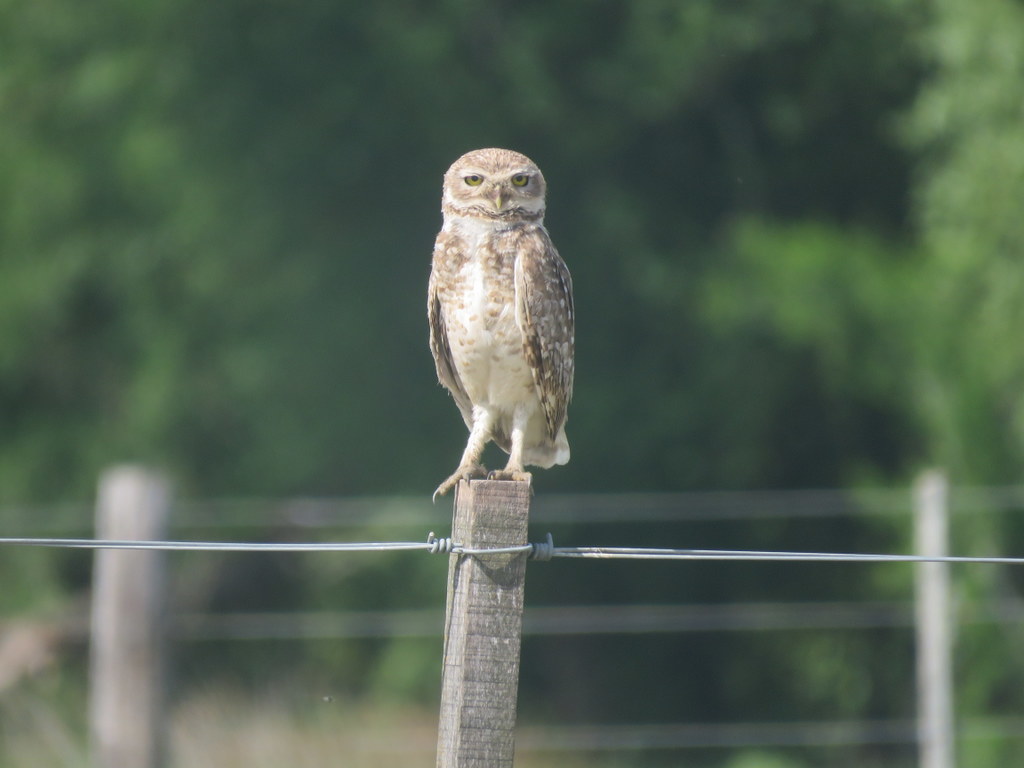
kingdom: Animalia
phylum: Chordata
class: Aves
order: Strigiformes
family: Strigidae
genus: Athene
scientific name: Athene cunicularia
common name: Burrowing owl
